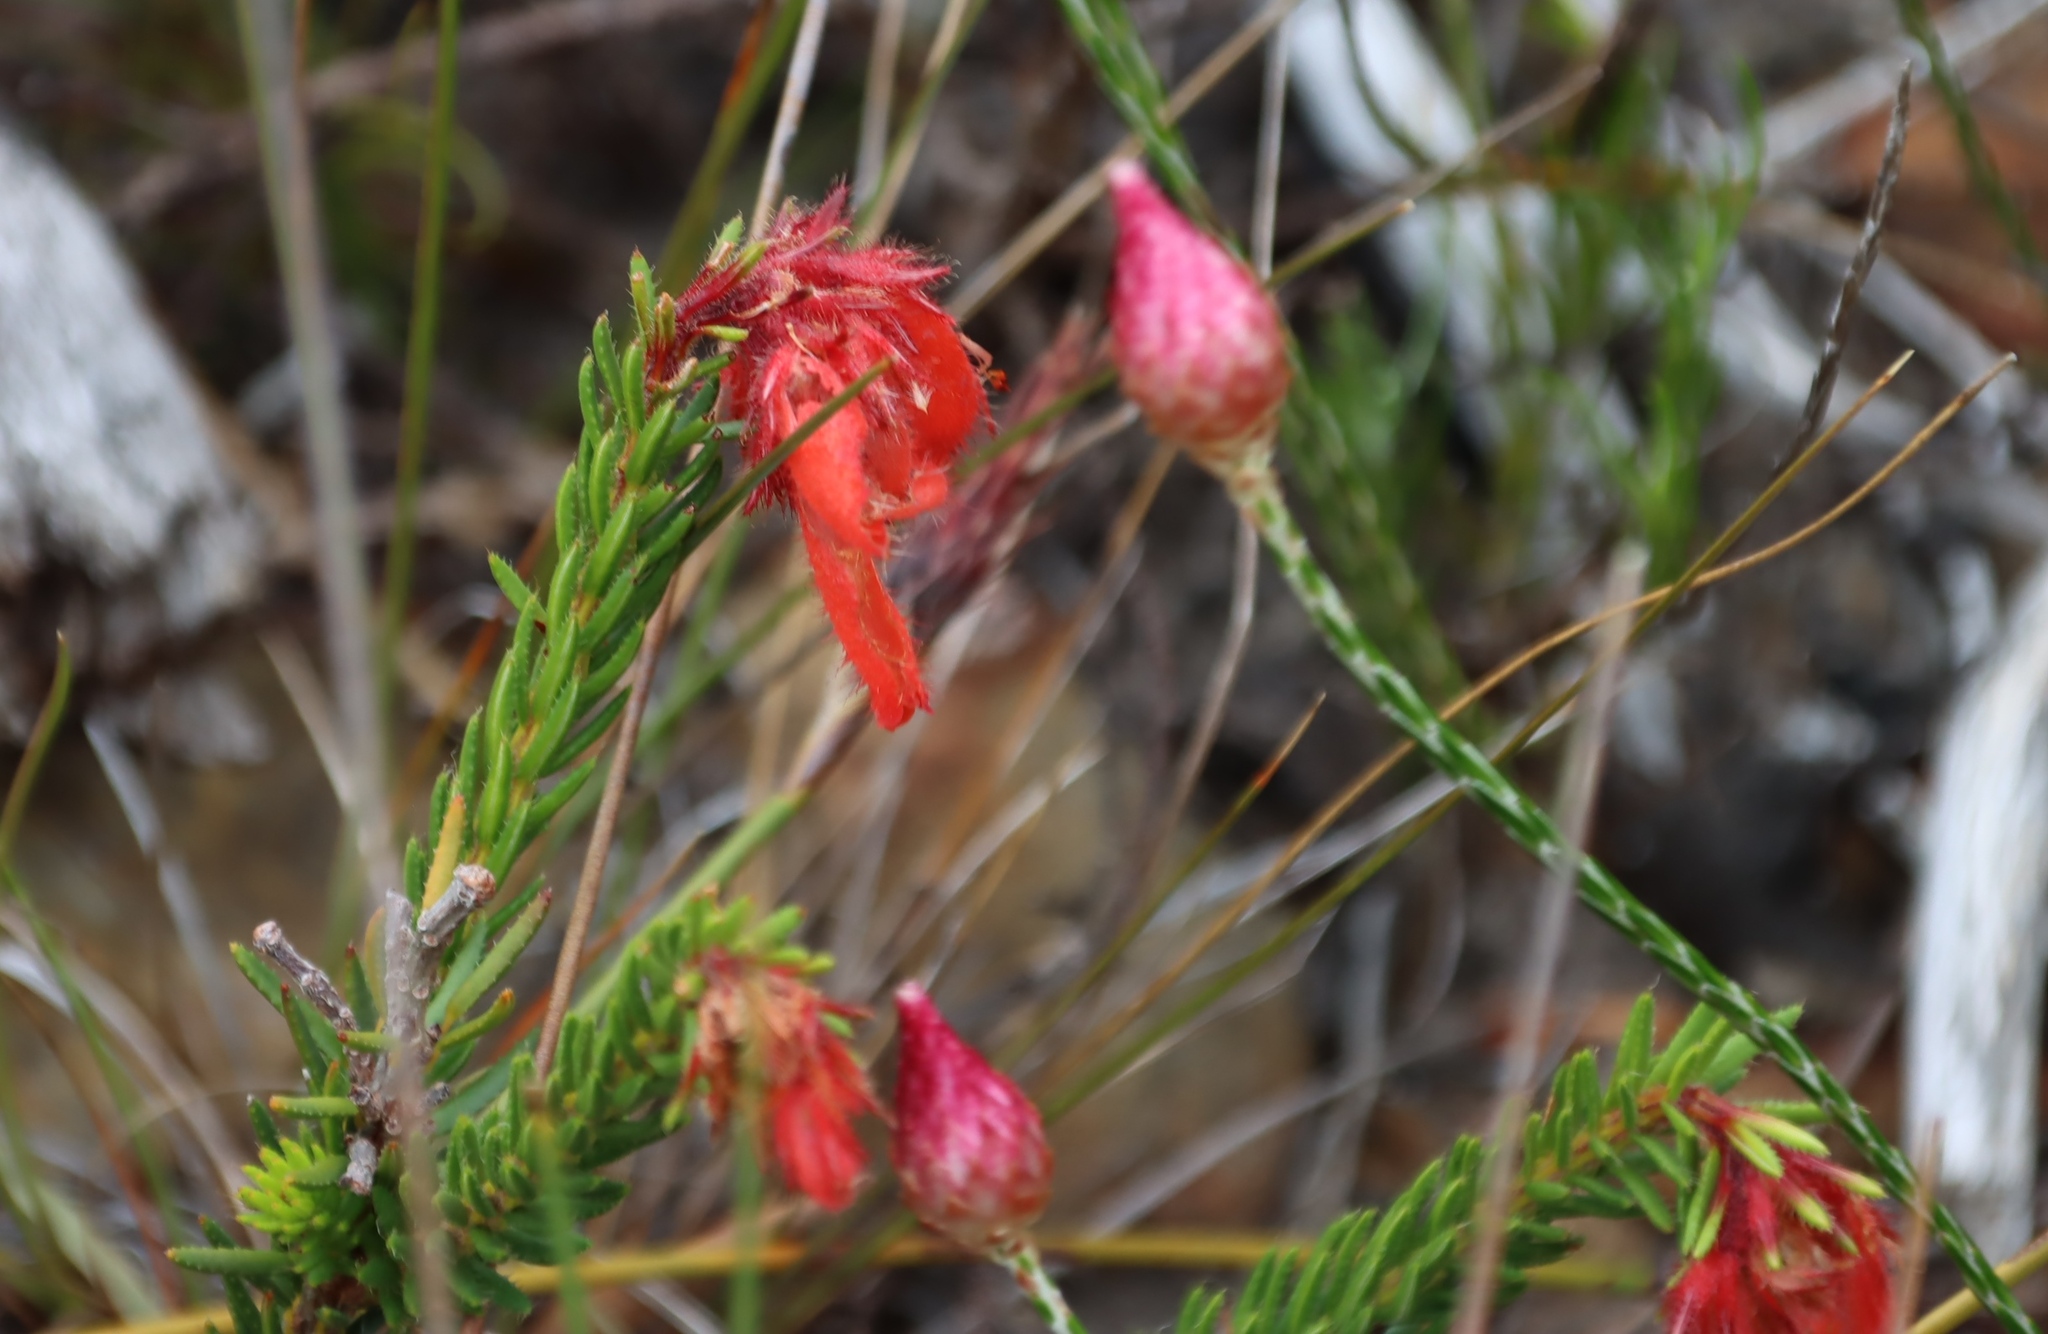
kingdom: Plantae
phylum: Tracheophyta
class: Magnoliopsida
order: Ericales
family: Ericaceae
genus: Erica
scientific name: Erica cerinthoides
